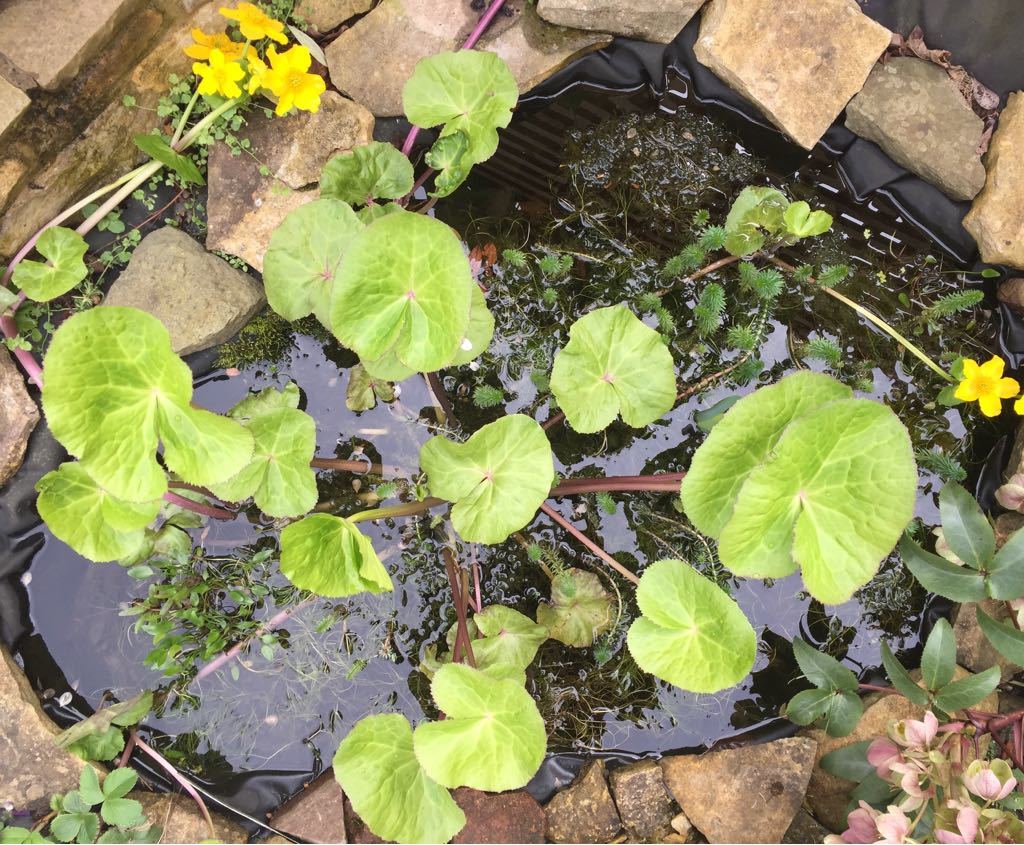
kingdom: Plantae
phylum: Tracheophyta
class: Magnoliopsida
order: Ranunculales
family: Ranunculaceae
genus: Caltha
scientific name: Caltha palustris
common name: Marsh marigold
